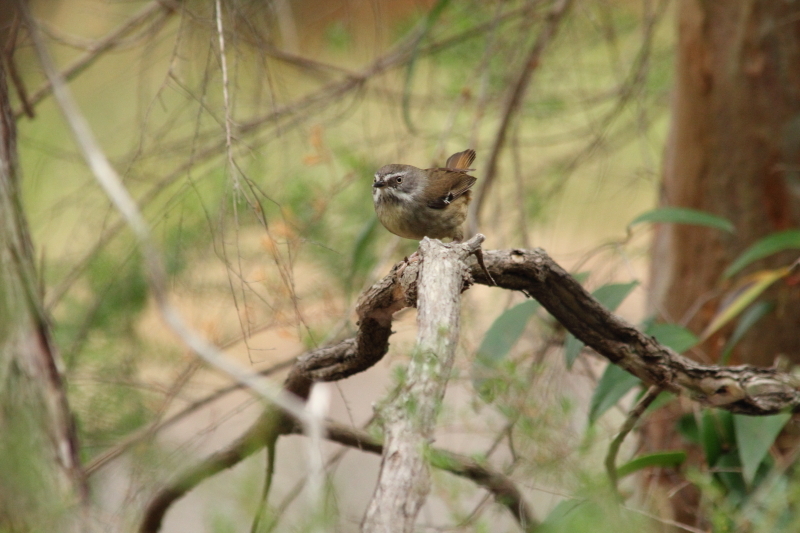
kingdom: Animalia
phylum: Chordata
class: Aves
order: Passeriformes
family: Acanthizidae
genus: Sericornis
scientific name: Sericornis frontalis
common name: White-browed scrubwren
